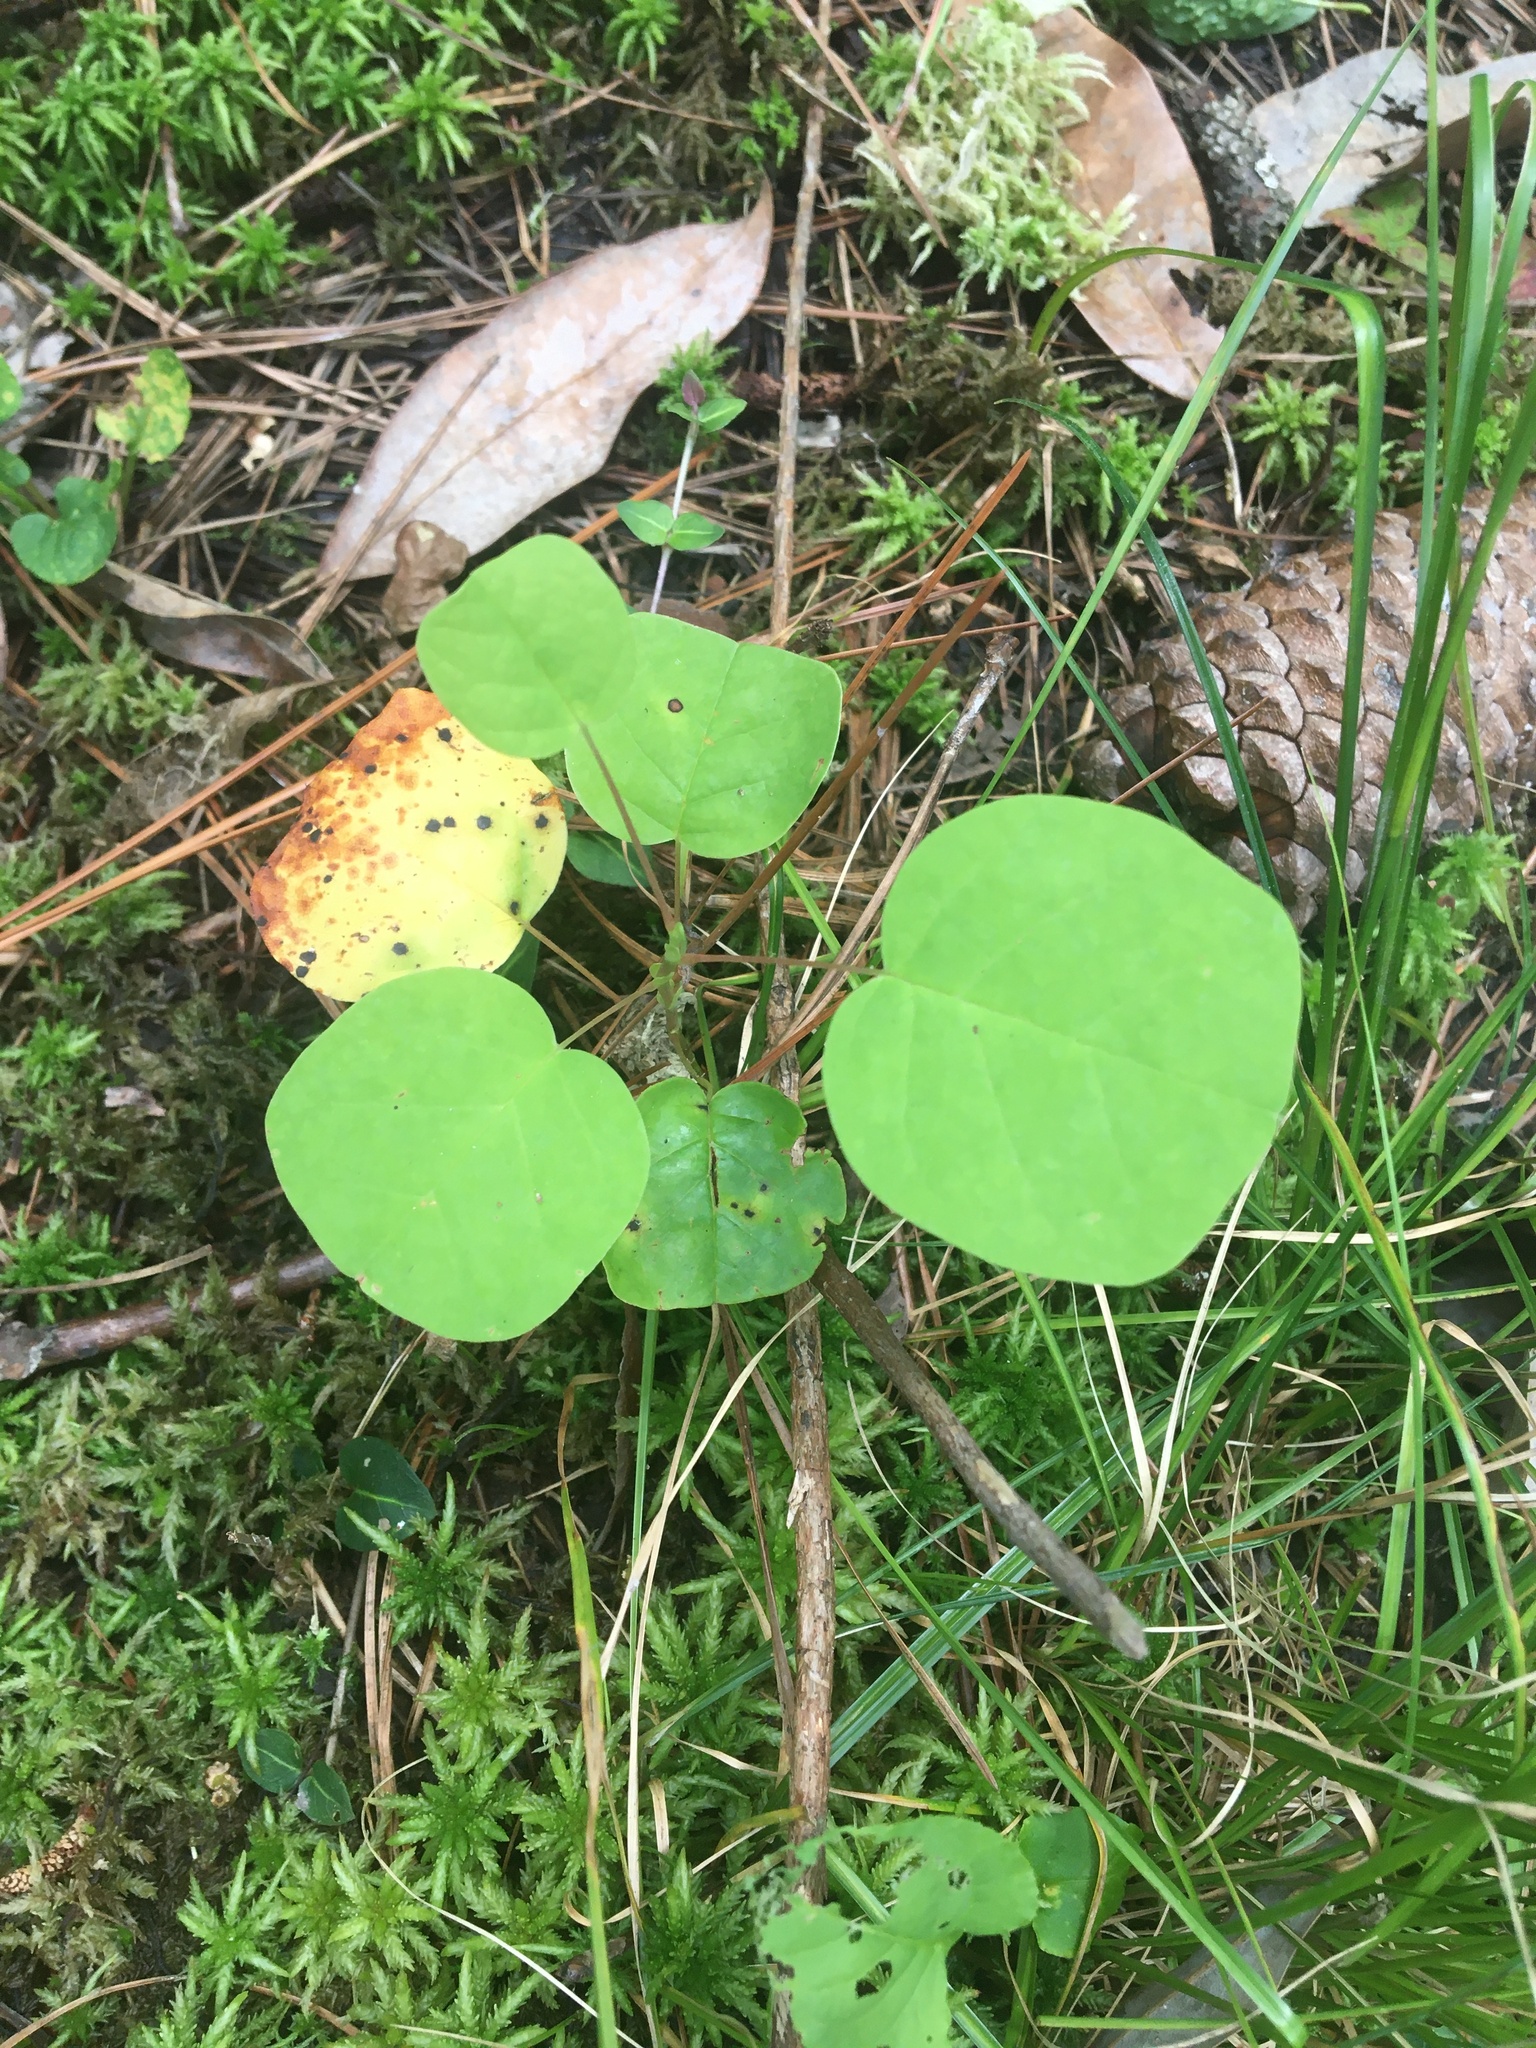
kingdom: Plantae
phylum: Tracheophyta
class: Magnoliopsida
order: Magnoliales
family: Magnoliaceae
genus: Liriodendron
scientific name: Liriodendron tulipifera
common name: Tulip tree
